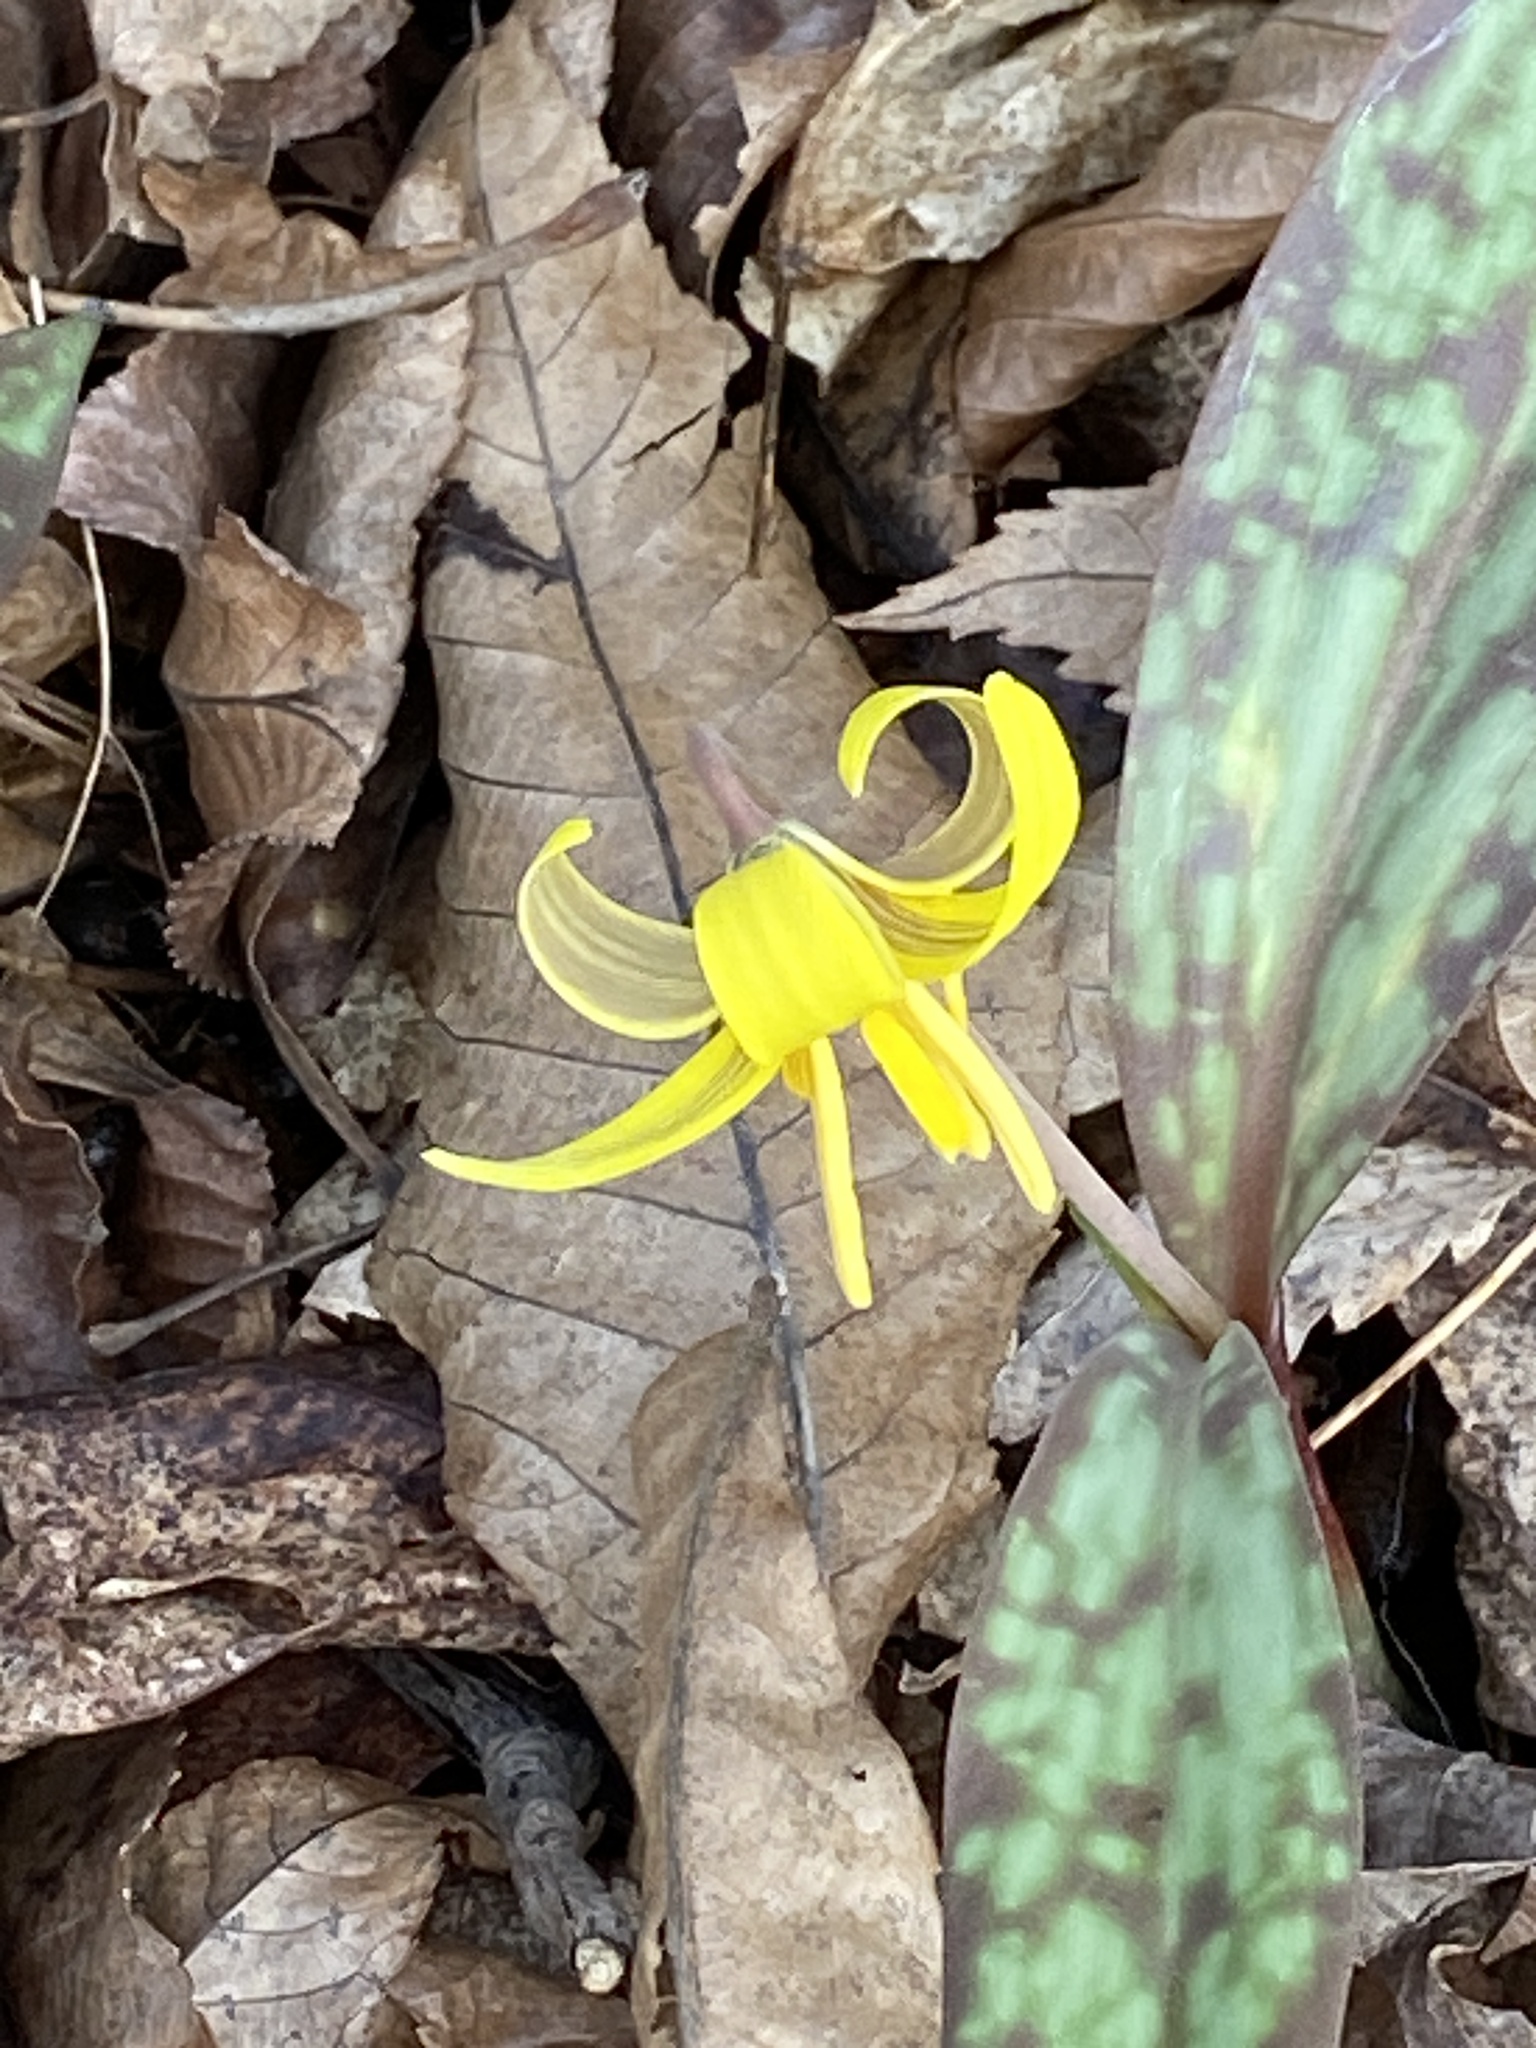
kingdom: Plantae
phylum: Tracheophyta
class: Liliopsida
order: Liliales
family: Liliaceae
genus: Erythronium
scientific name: Erythronium americanum
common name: Yellow adder's-tongue
